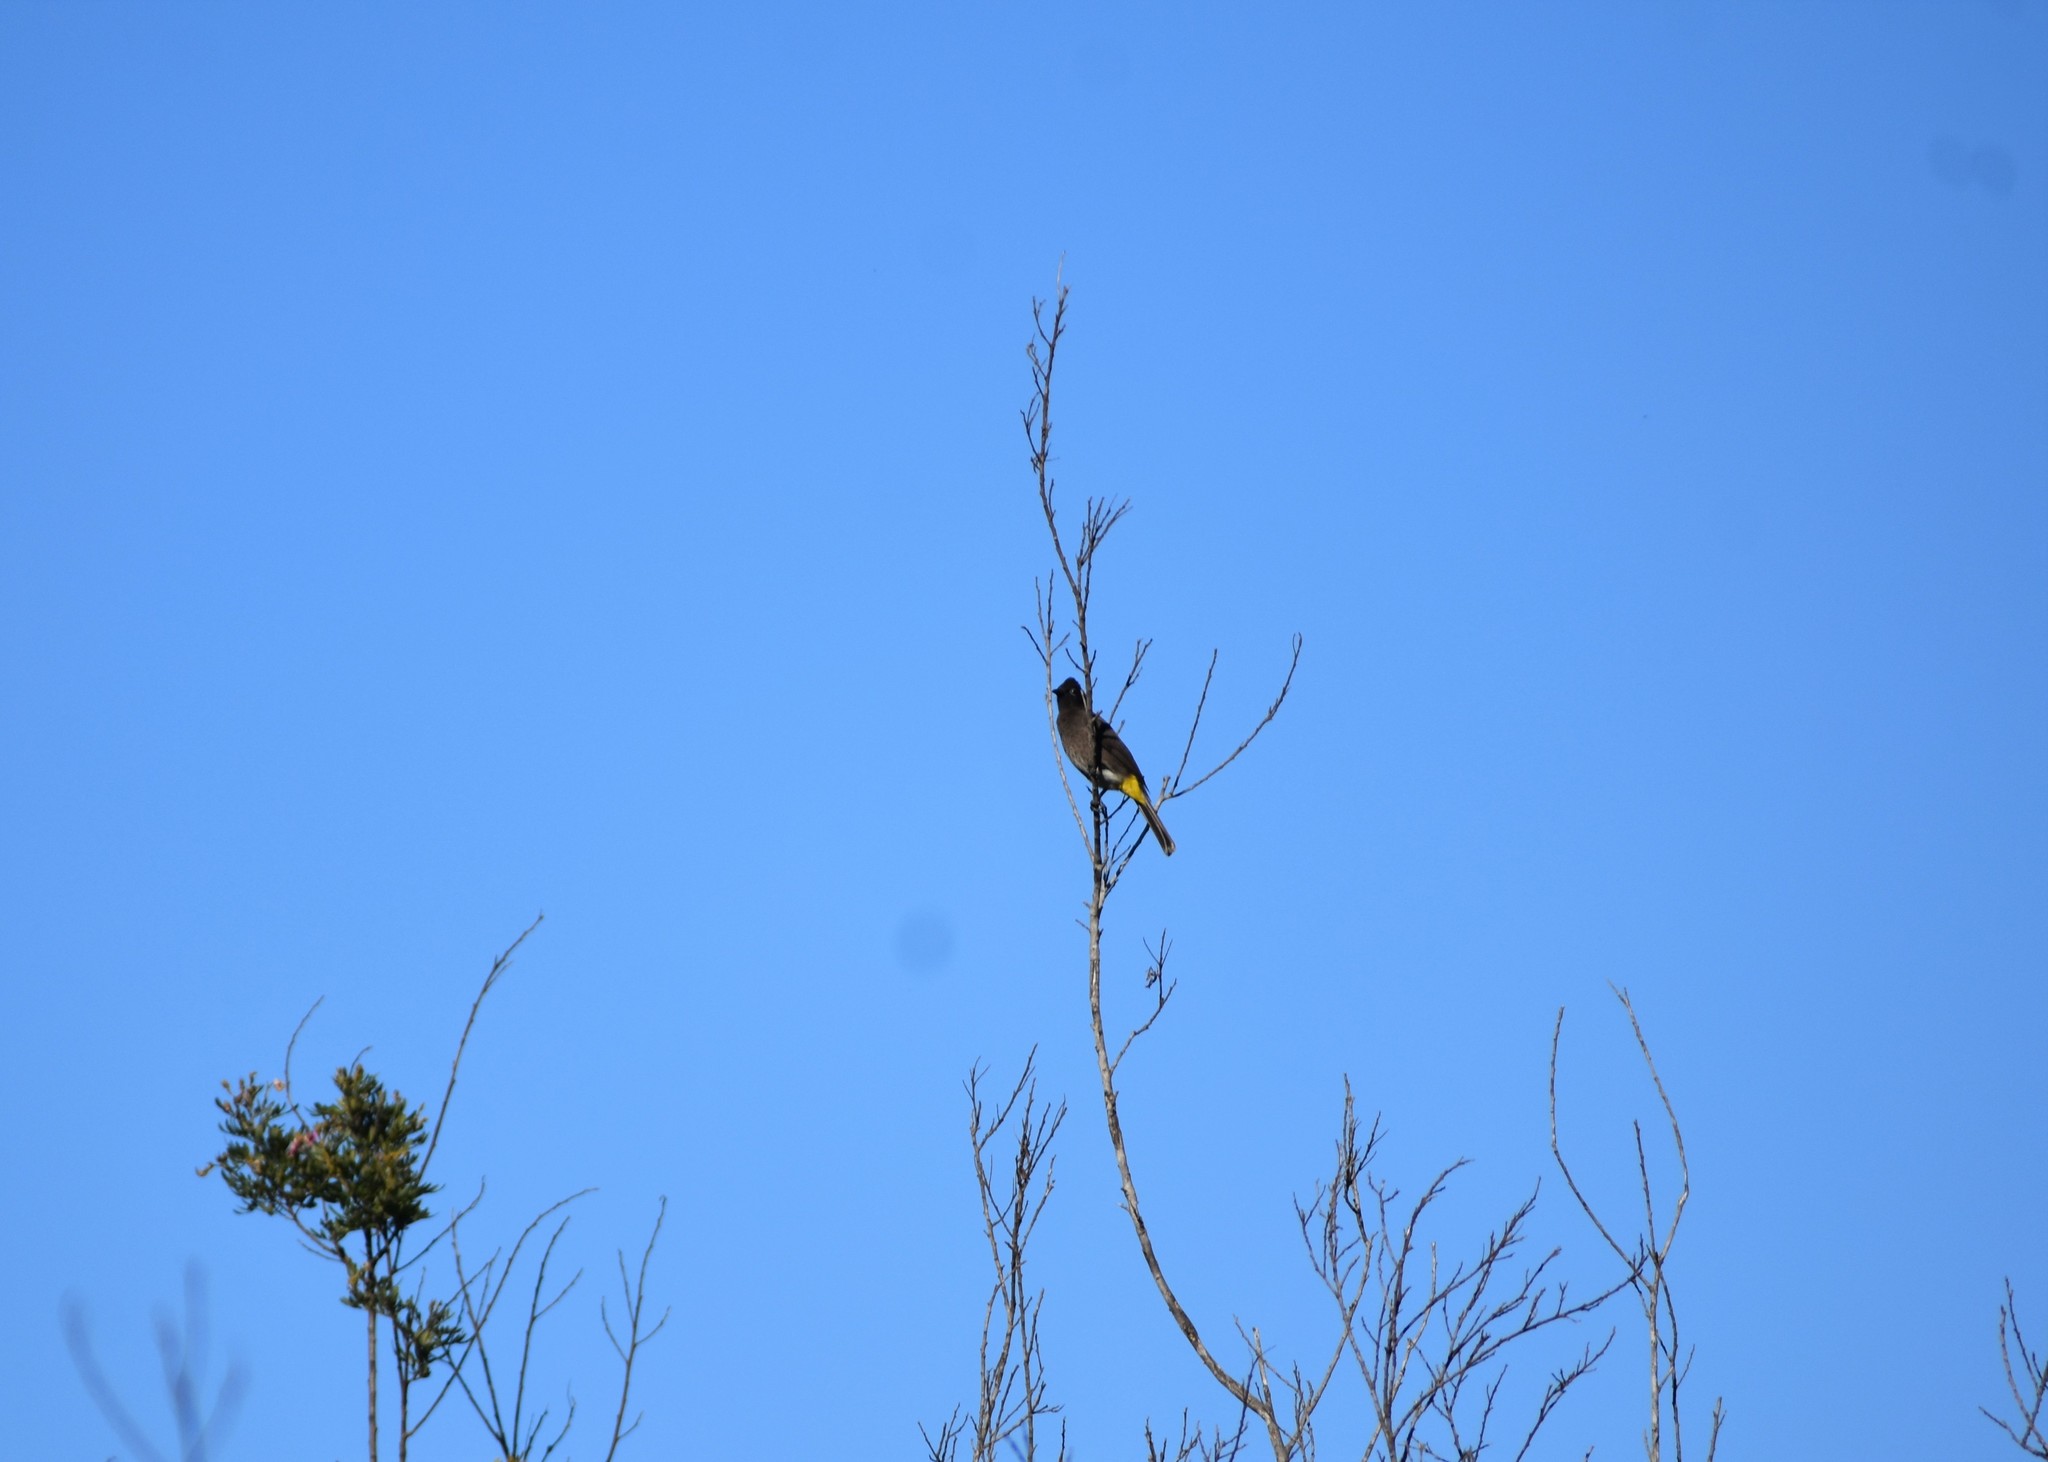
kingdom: Animalia
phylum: Chordata
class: Aves
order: Passeriformes
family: Pycnonotidae
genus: Pycnonotus
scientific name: Pycnonotus capensis
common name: Cape bulbul
